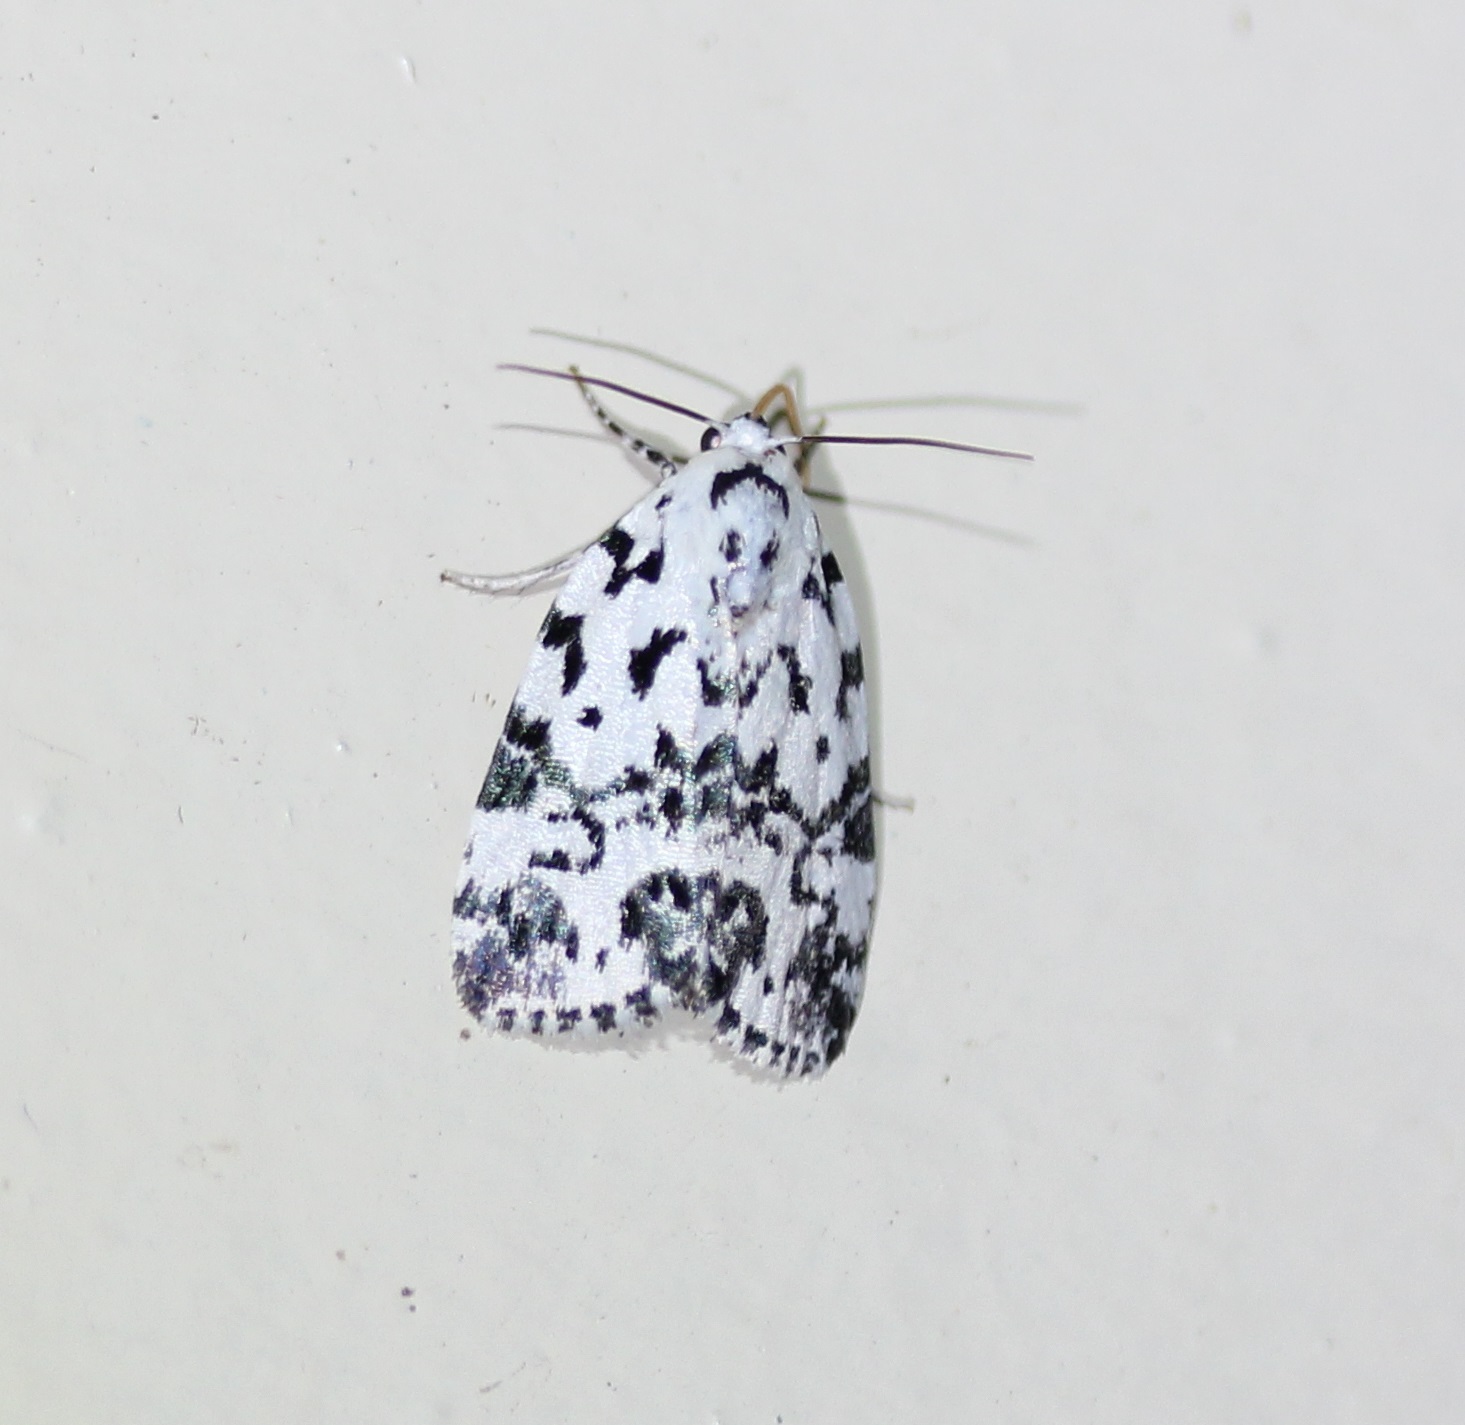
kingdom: Animalia
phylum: Arthropoda
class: Insecta
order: Lepidoptera
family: Noctuidae
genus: Polygrammate
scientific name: Polygrammate hebraeicum
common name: Hebrew moth
